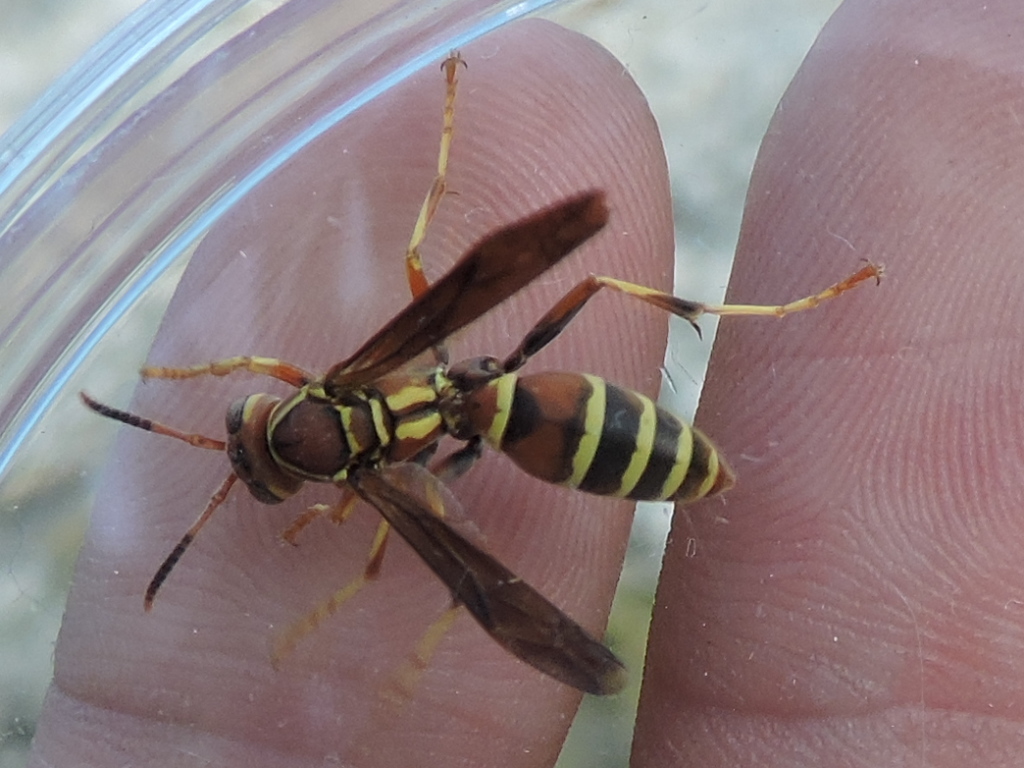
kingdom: Animalia
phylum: Arthropoda
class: Insecta
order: Hymenoptera
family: Eumenidae
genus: Polistes
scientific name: Polistes dorsalis
